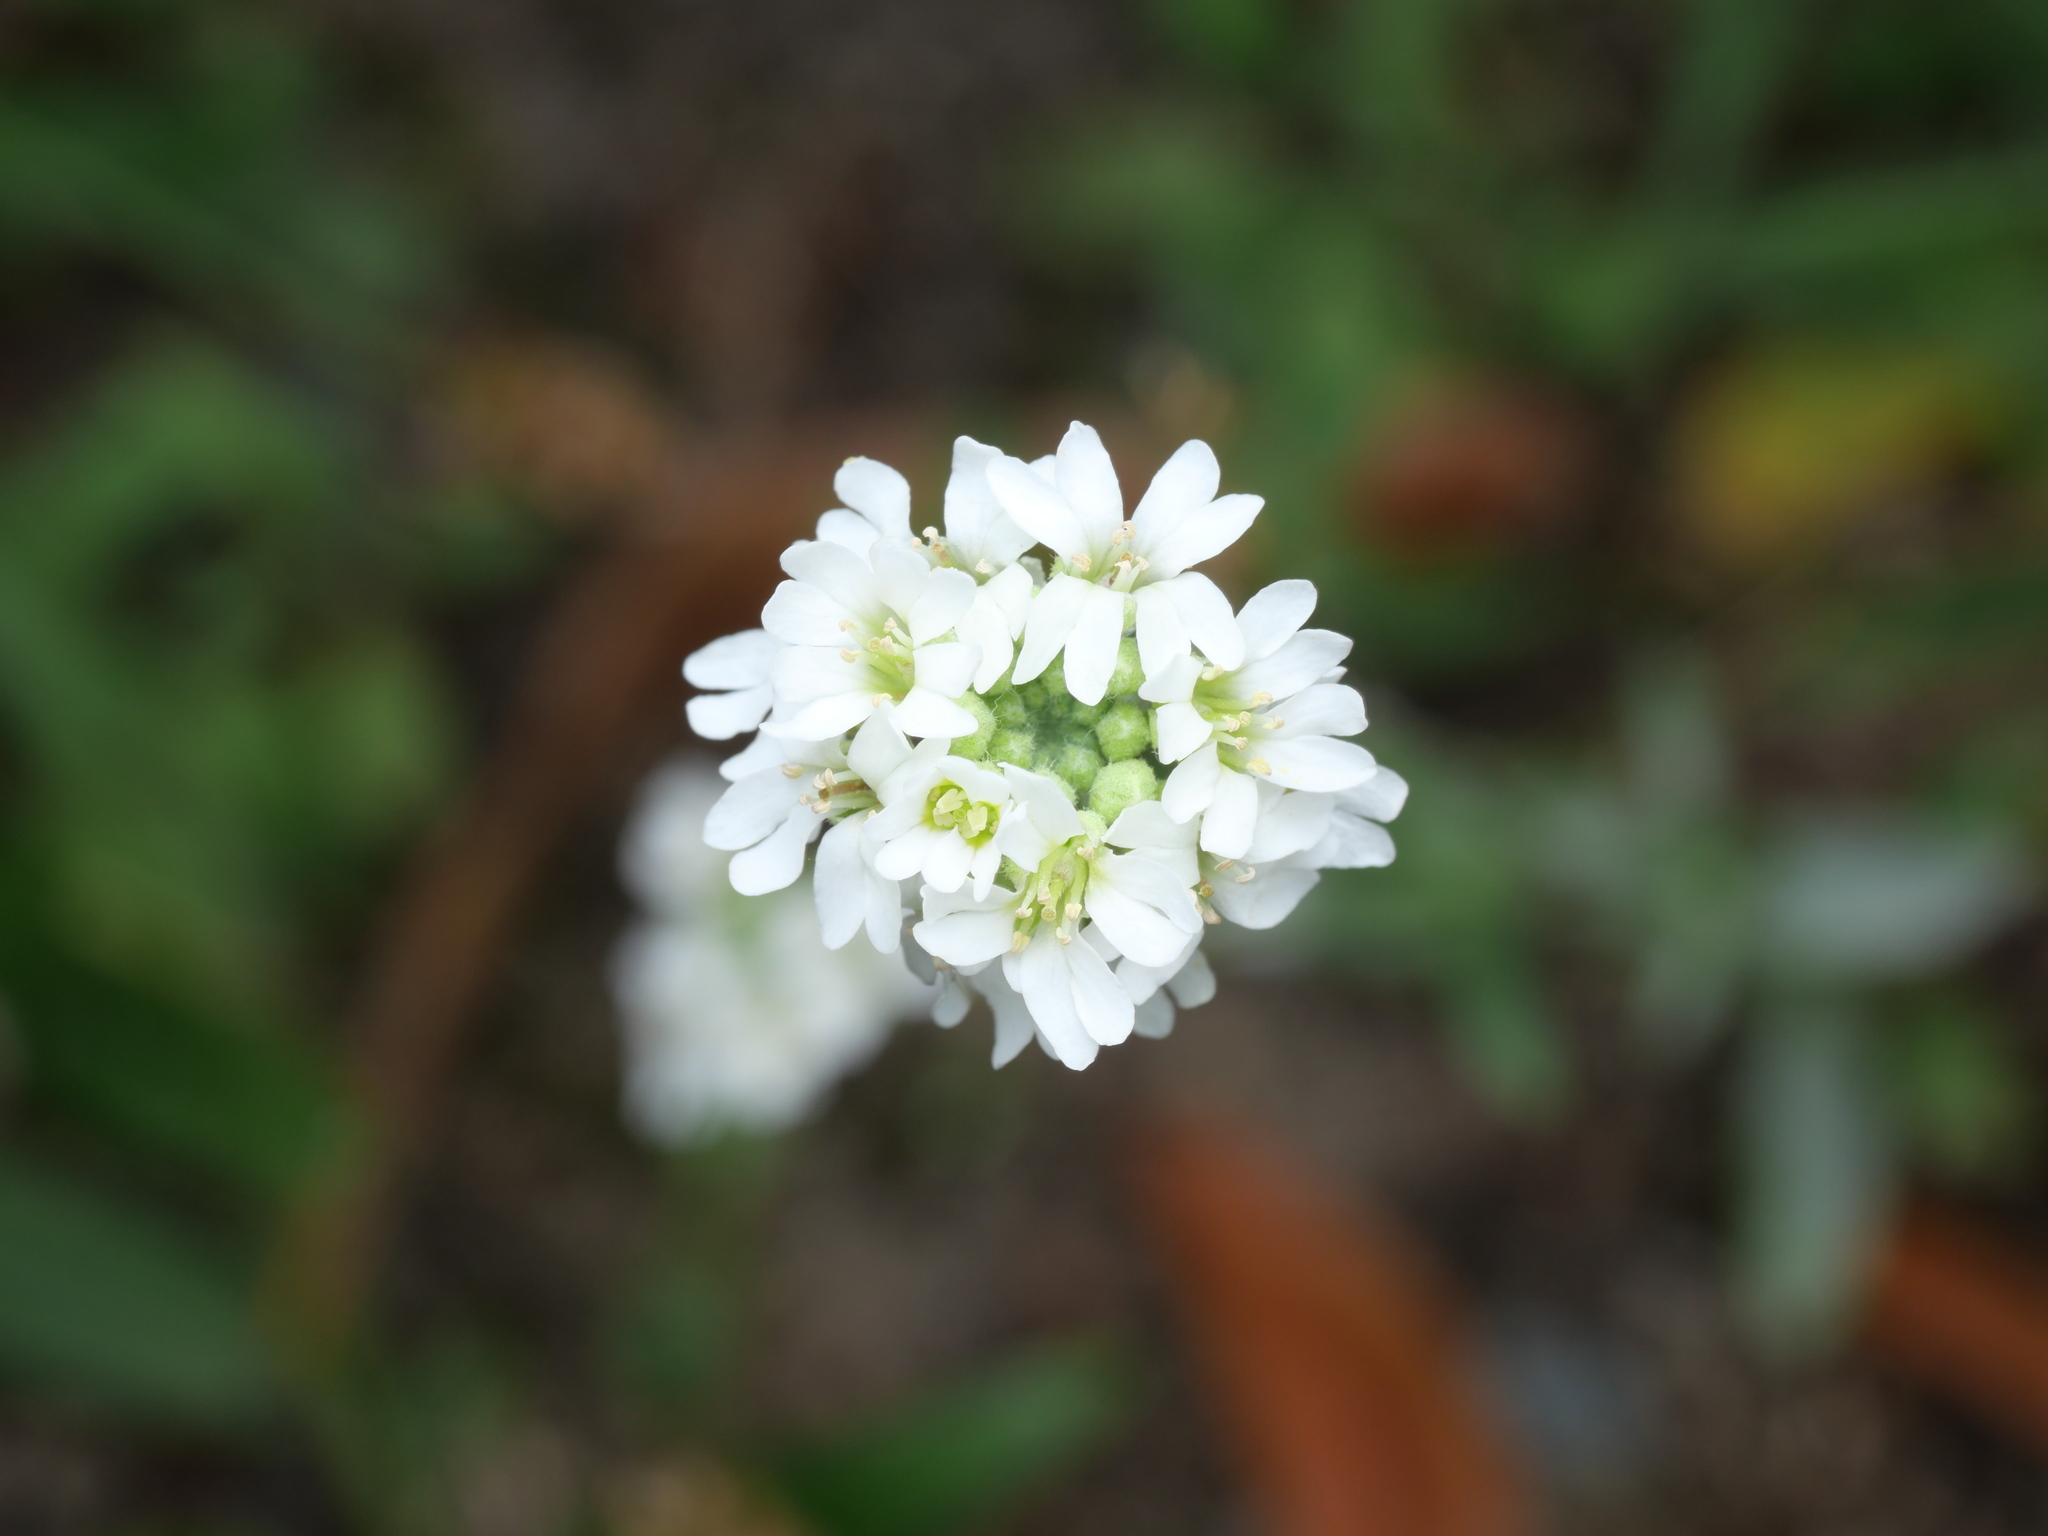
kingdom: Plantae
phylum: Tracheophyta
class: Magnoliopsida
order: Brassicales
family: Brassicaceae
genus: Berteroa
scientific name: Berteroa incana
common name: Hoary alison
